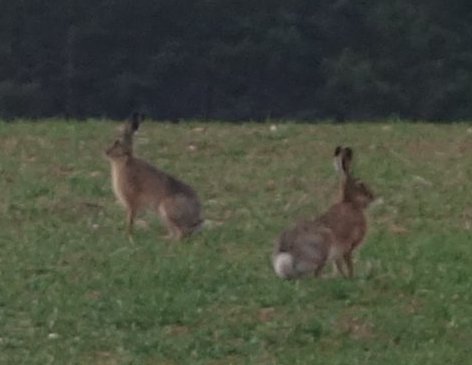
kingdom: Animalia
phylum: Chordata
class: Mammalia
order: Lagomorpha
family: Leporidae
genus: Lepus
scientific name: Lepus europaeus
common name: European hare
